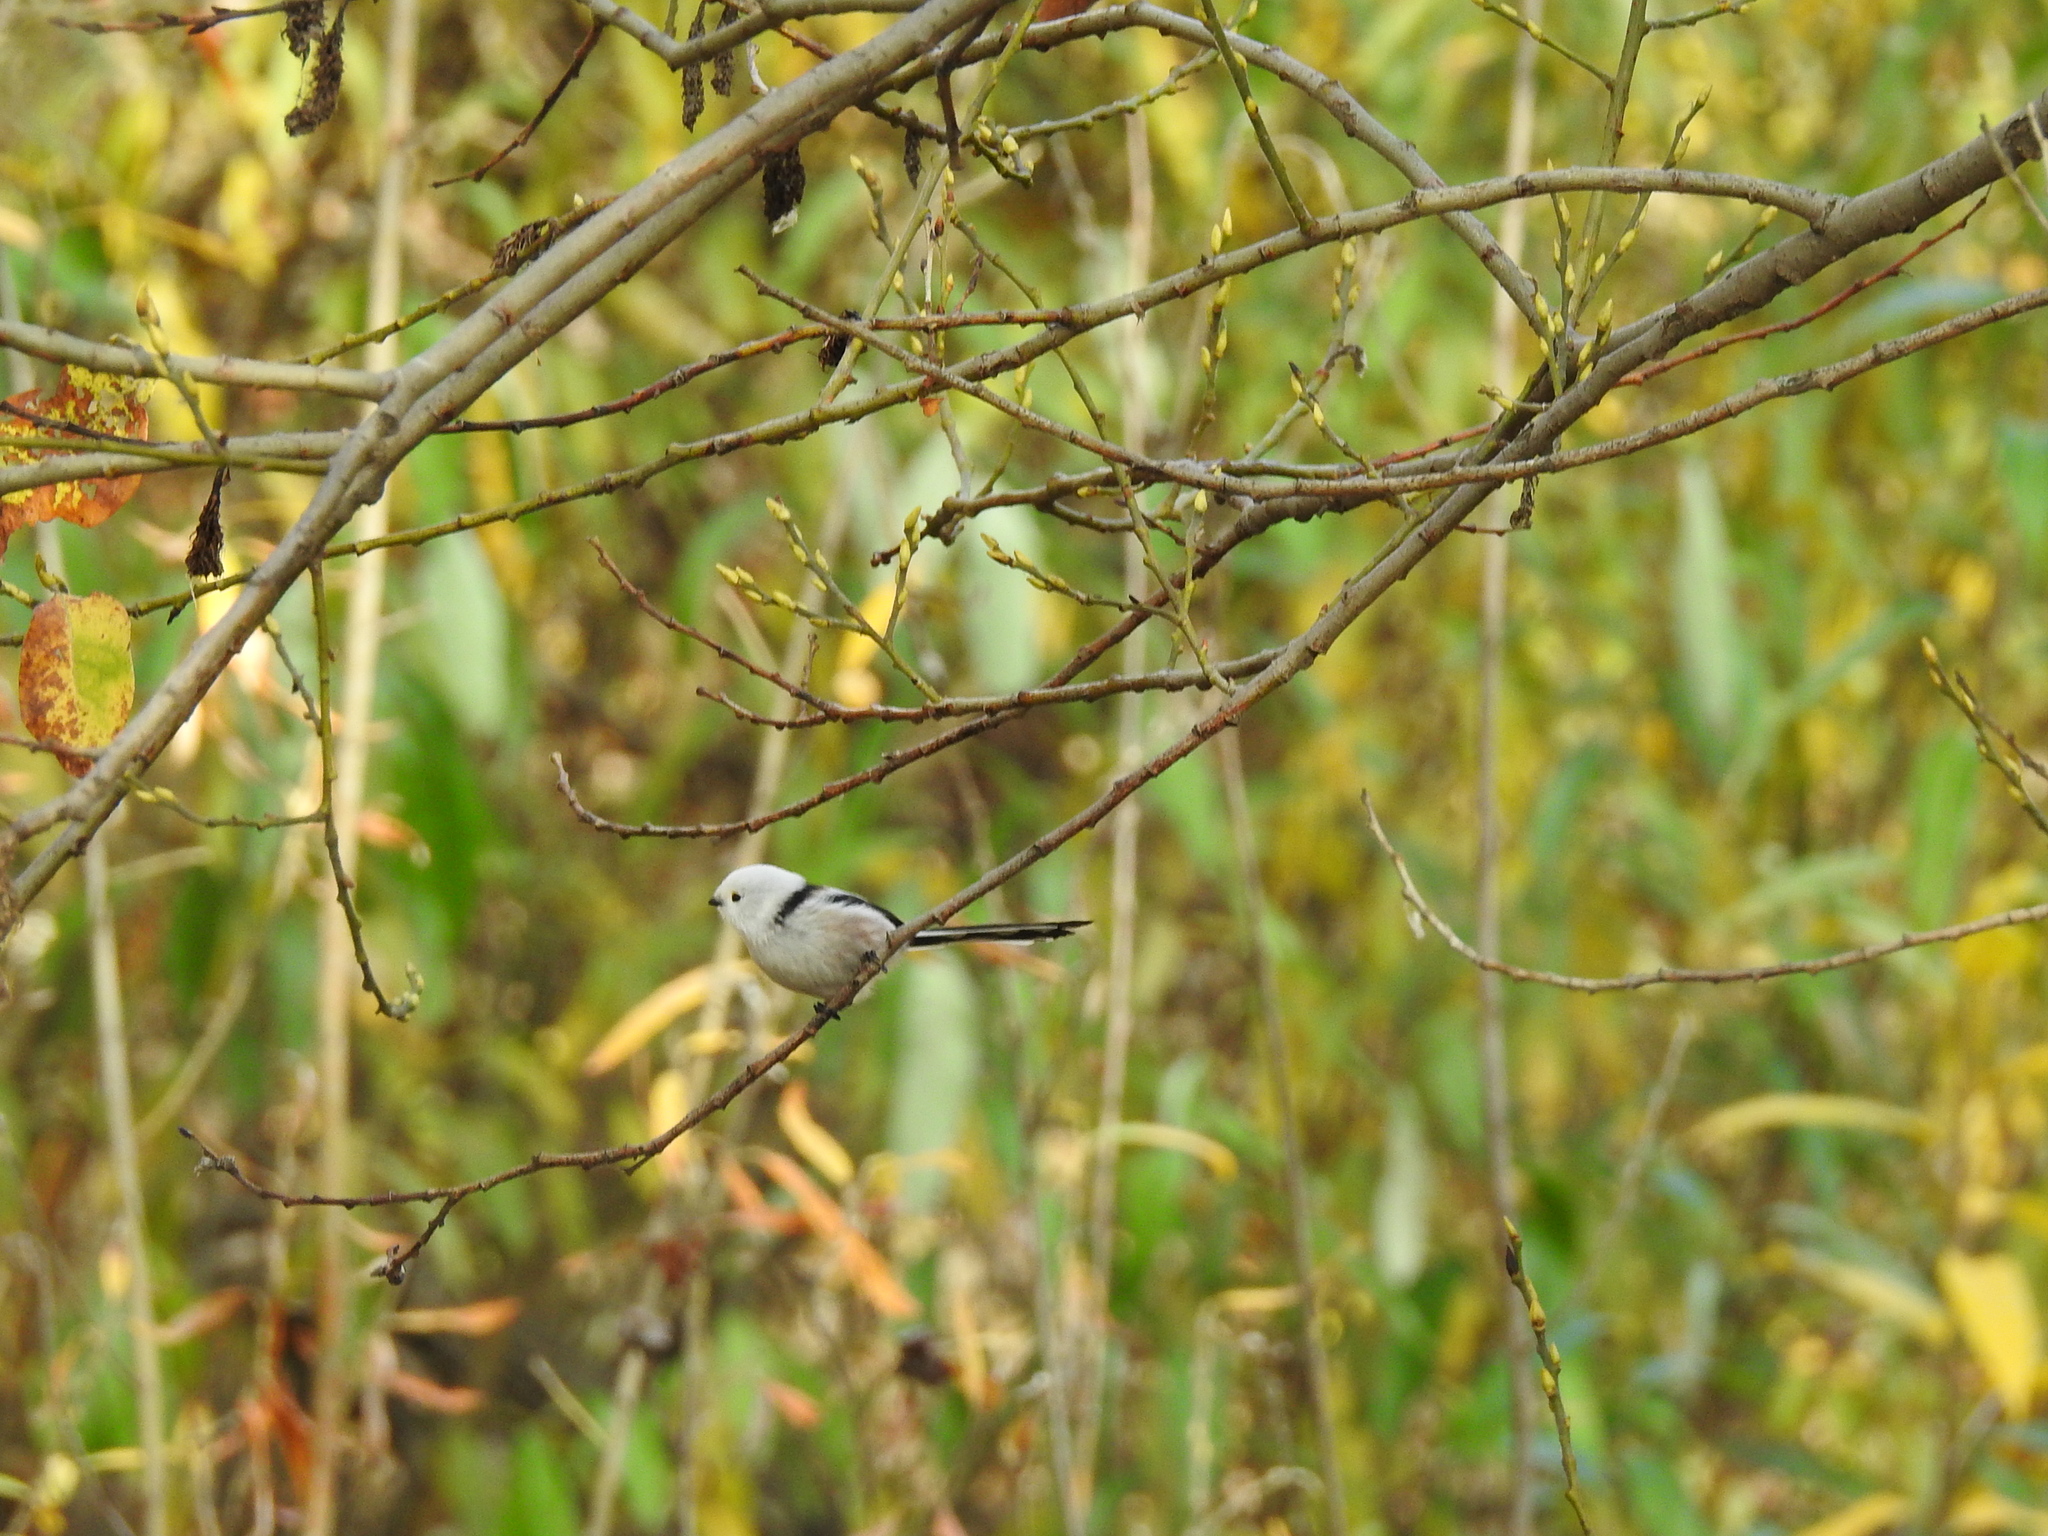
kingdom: Animalia
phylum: Chordata
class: Aves
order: Passeriformes
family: Aegithalidae
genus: Aegithalos
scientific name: Aegithalos caudatus
